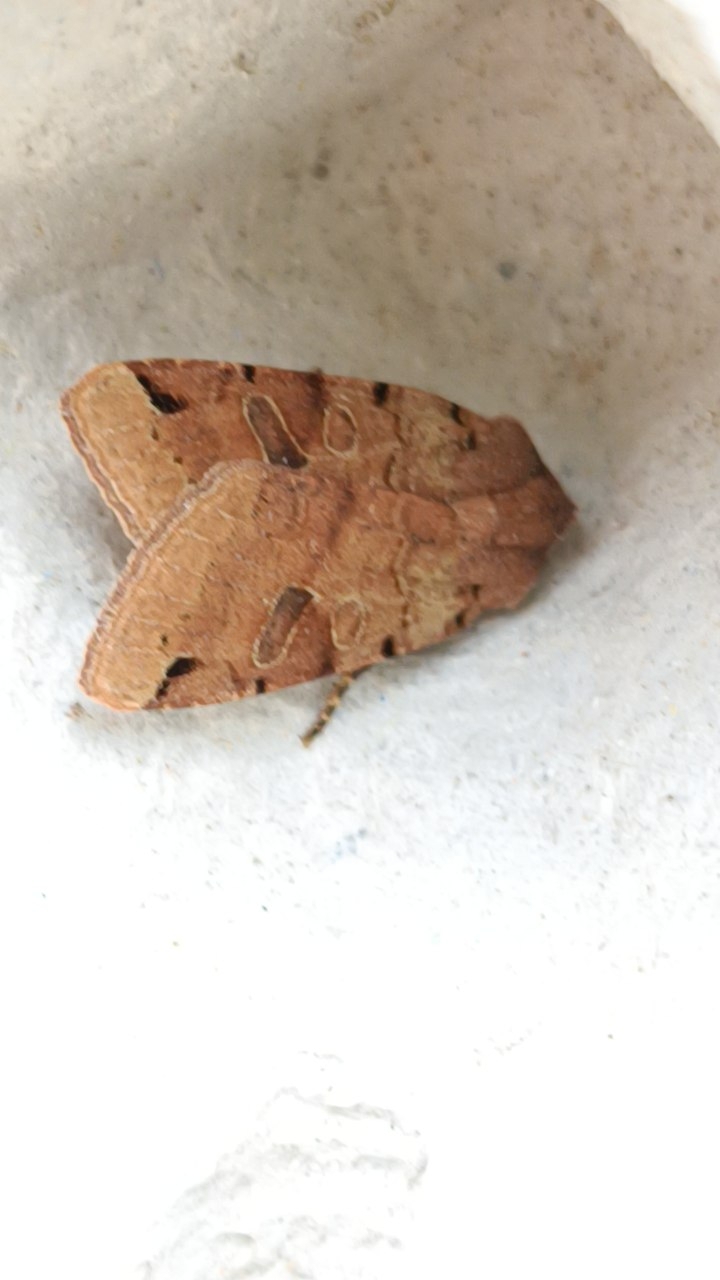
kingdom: Animalia
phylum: Arthropoda
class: Insecta
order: Lepidoptera
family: Noctuidae
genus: Agrochola
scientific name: Agrochola litura
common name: Brown-spot pinion
